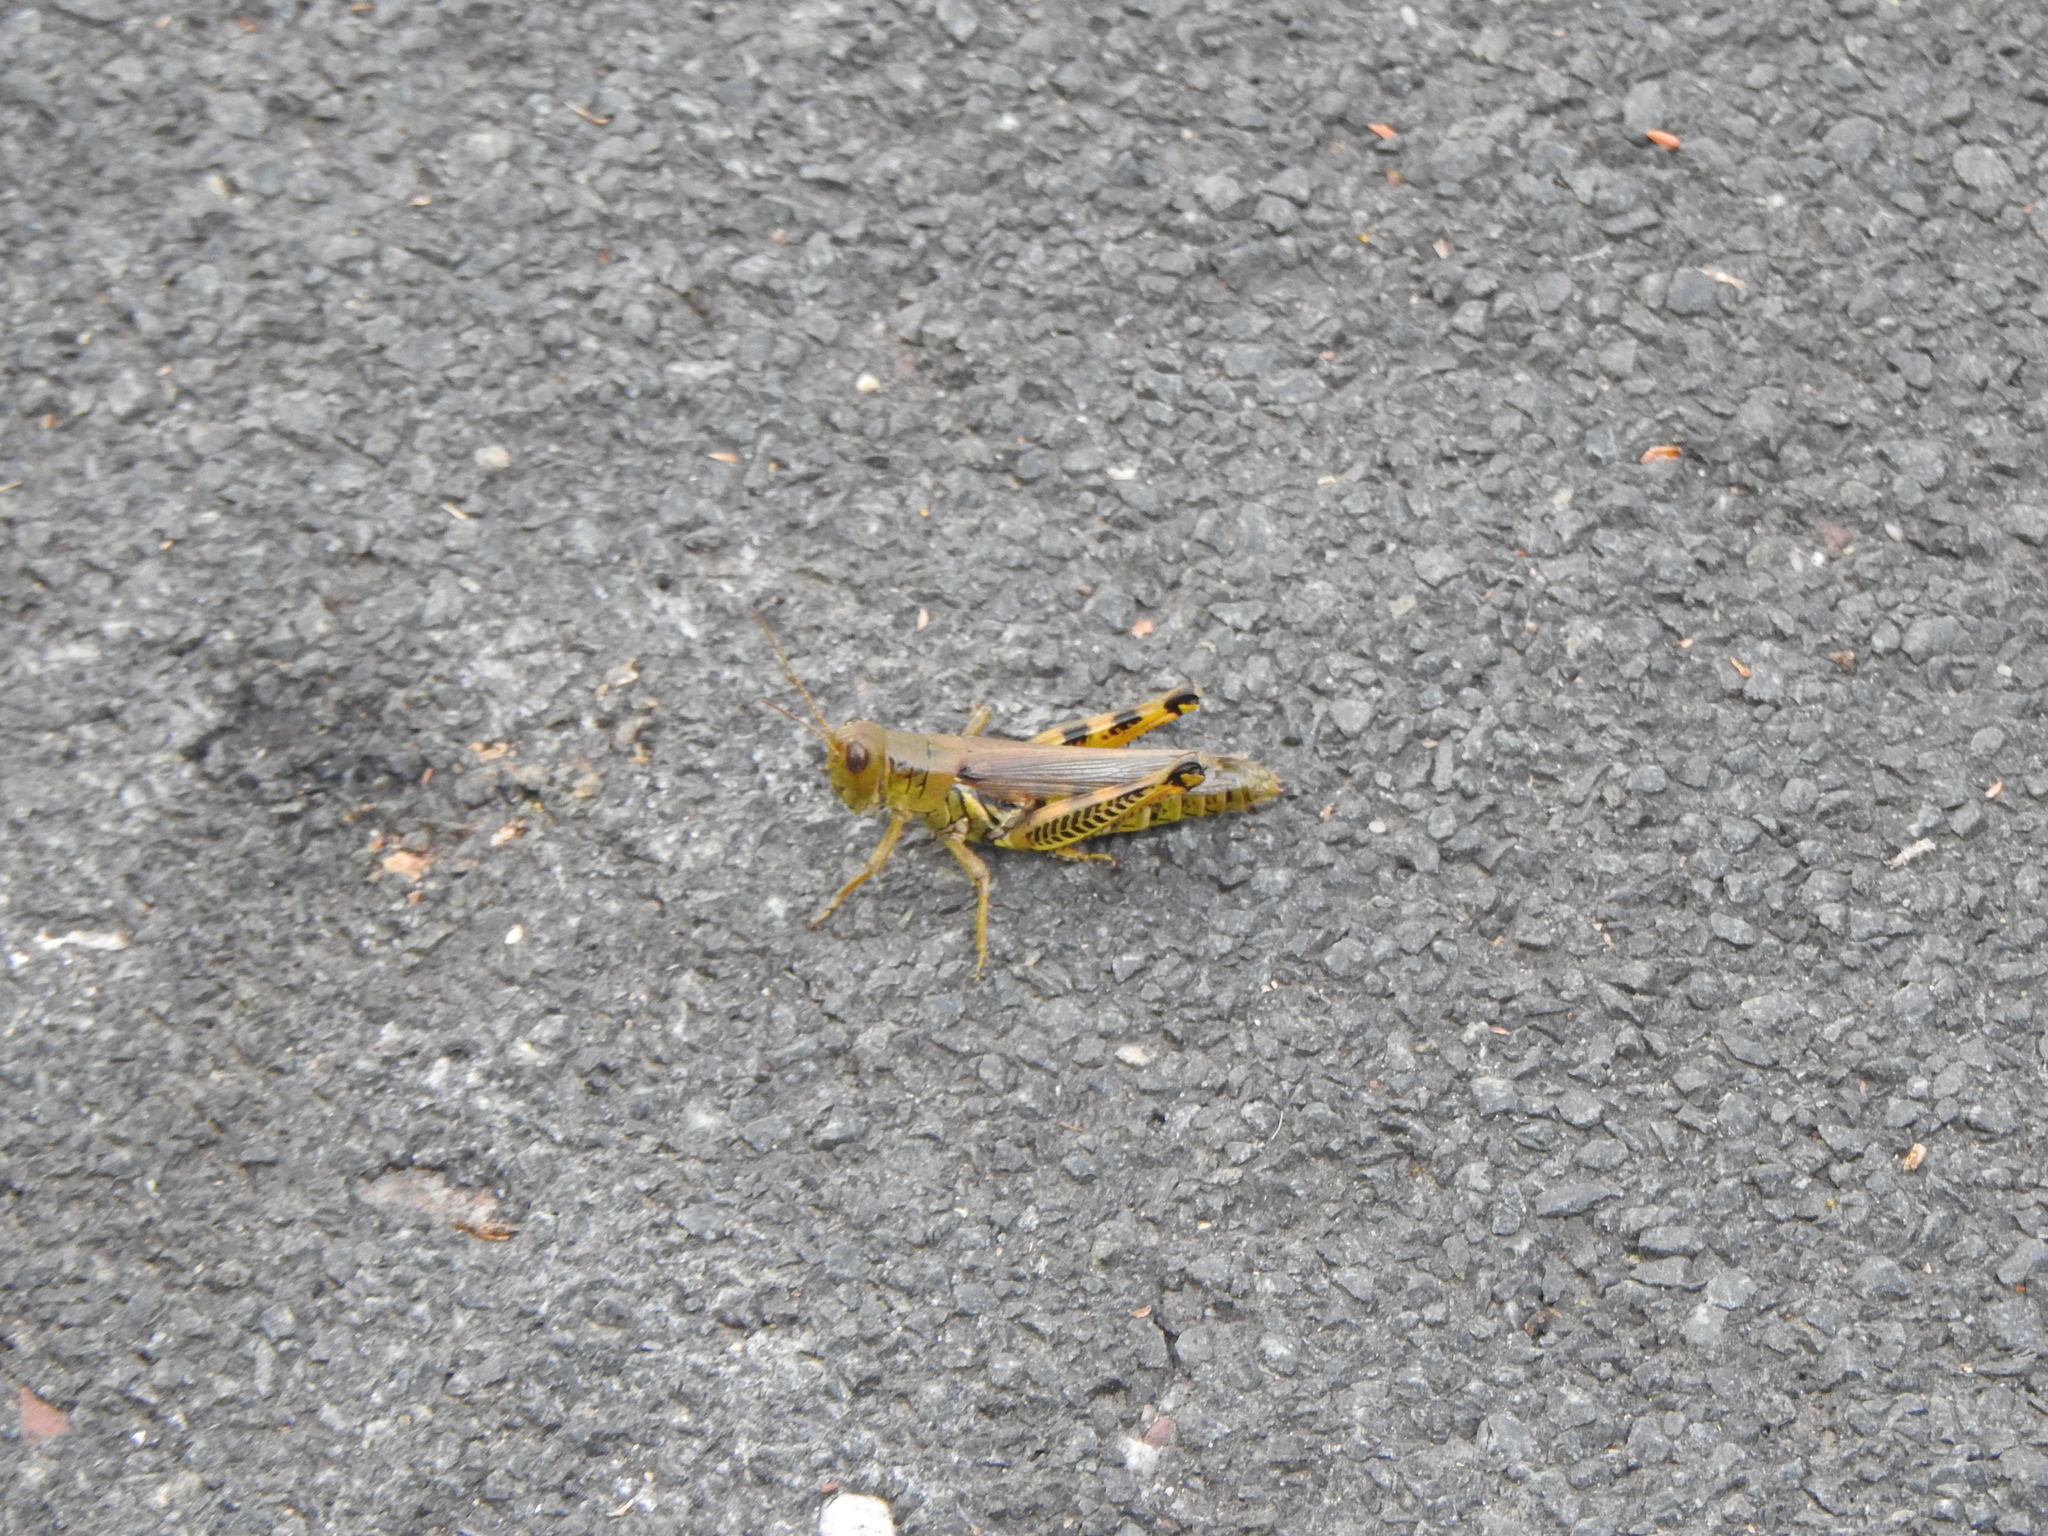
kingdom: Animalia
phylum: Arthropoda
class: Insecta
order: Orthoptera
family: Acrididae
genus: Melanoplus
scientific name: Melanoplus differentialis
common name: Differential grasshopper
